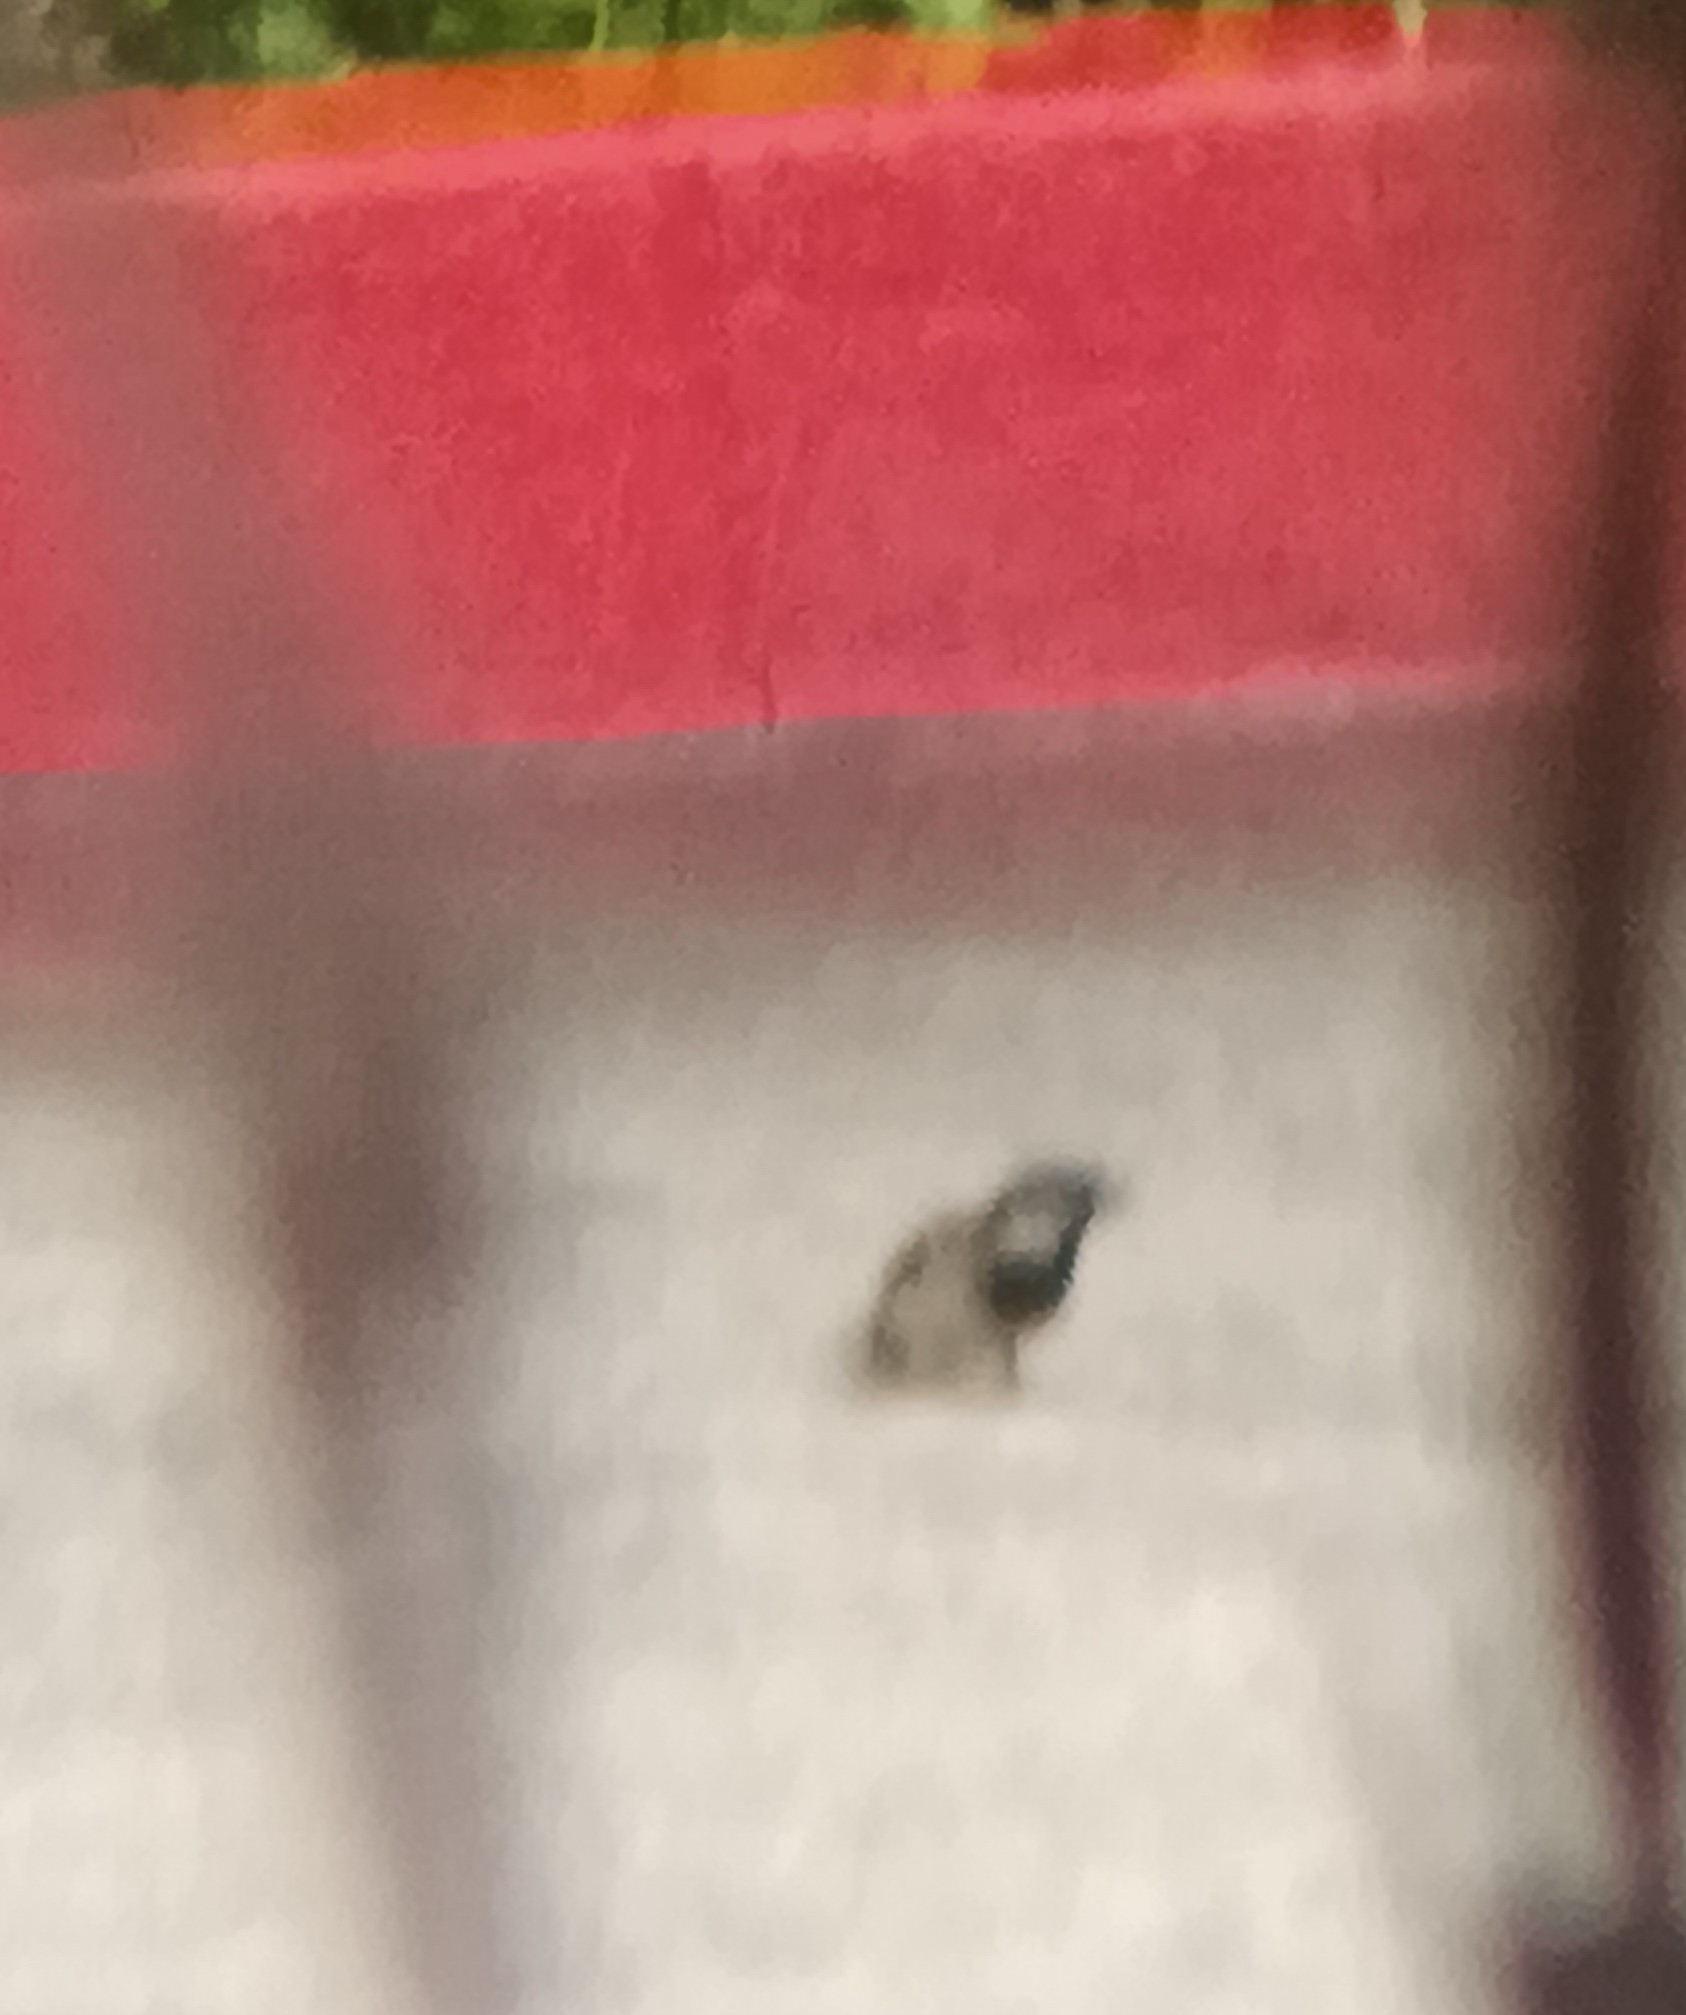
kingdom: Animalia
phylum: Chordata
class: Aves
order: Passeriformes
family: Passeridae
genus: Passer
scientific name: Passer domesticus
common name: House sparrow
